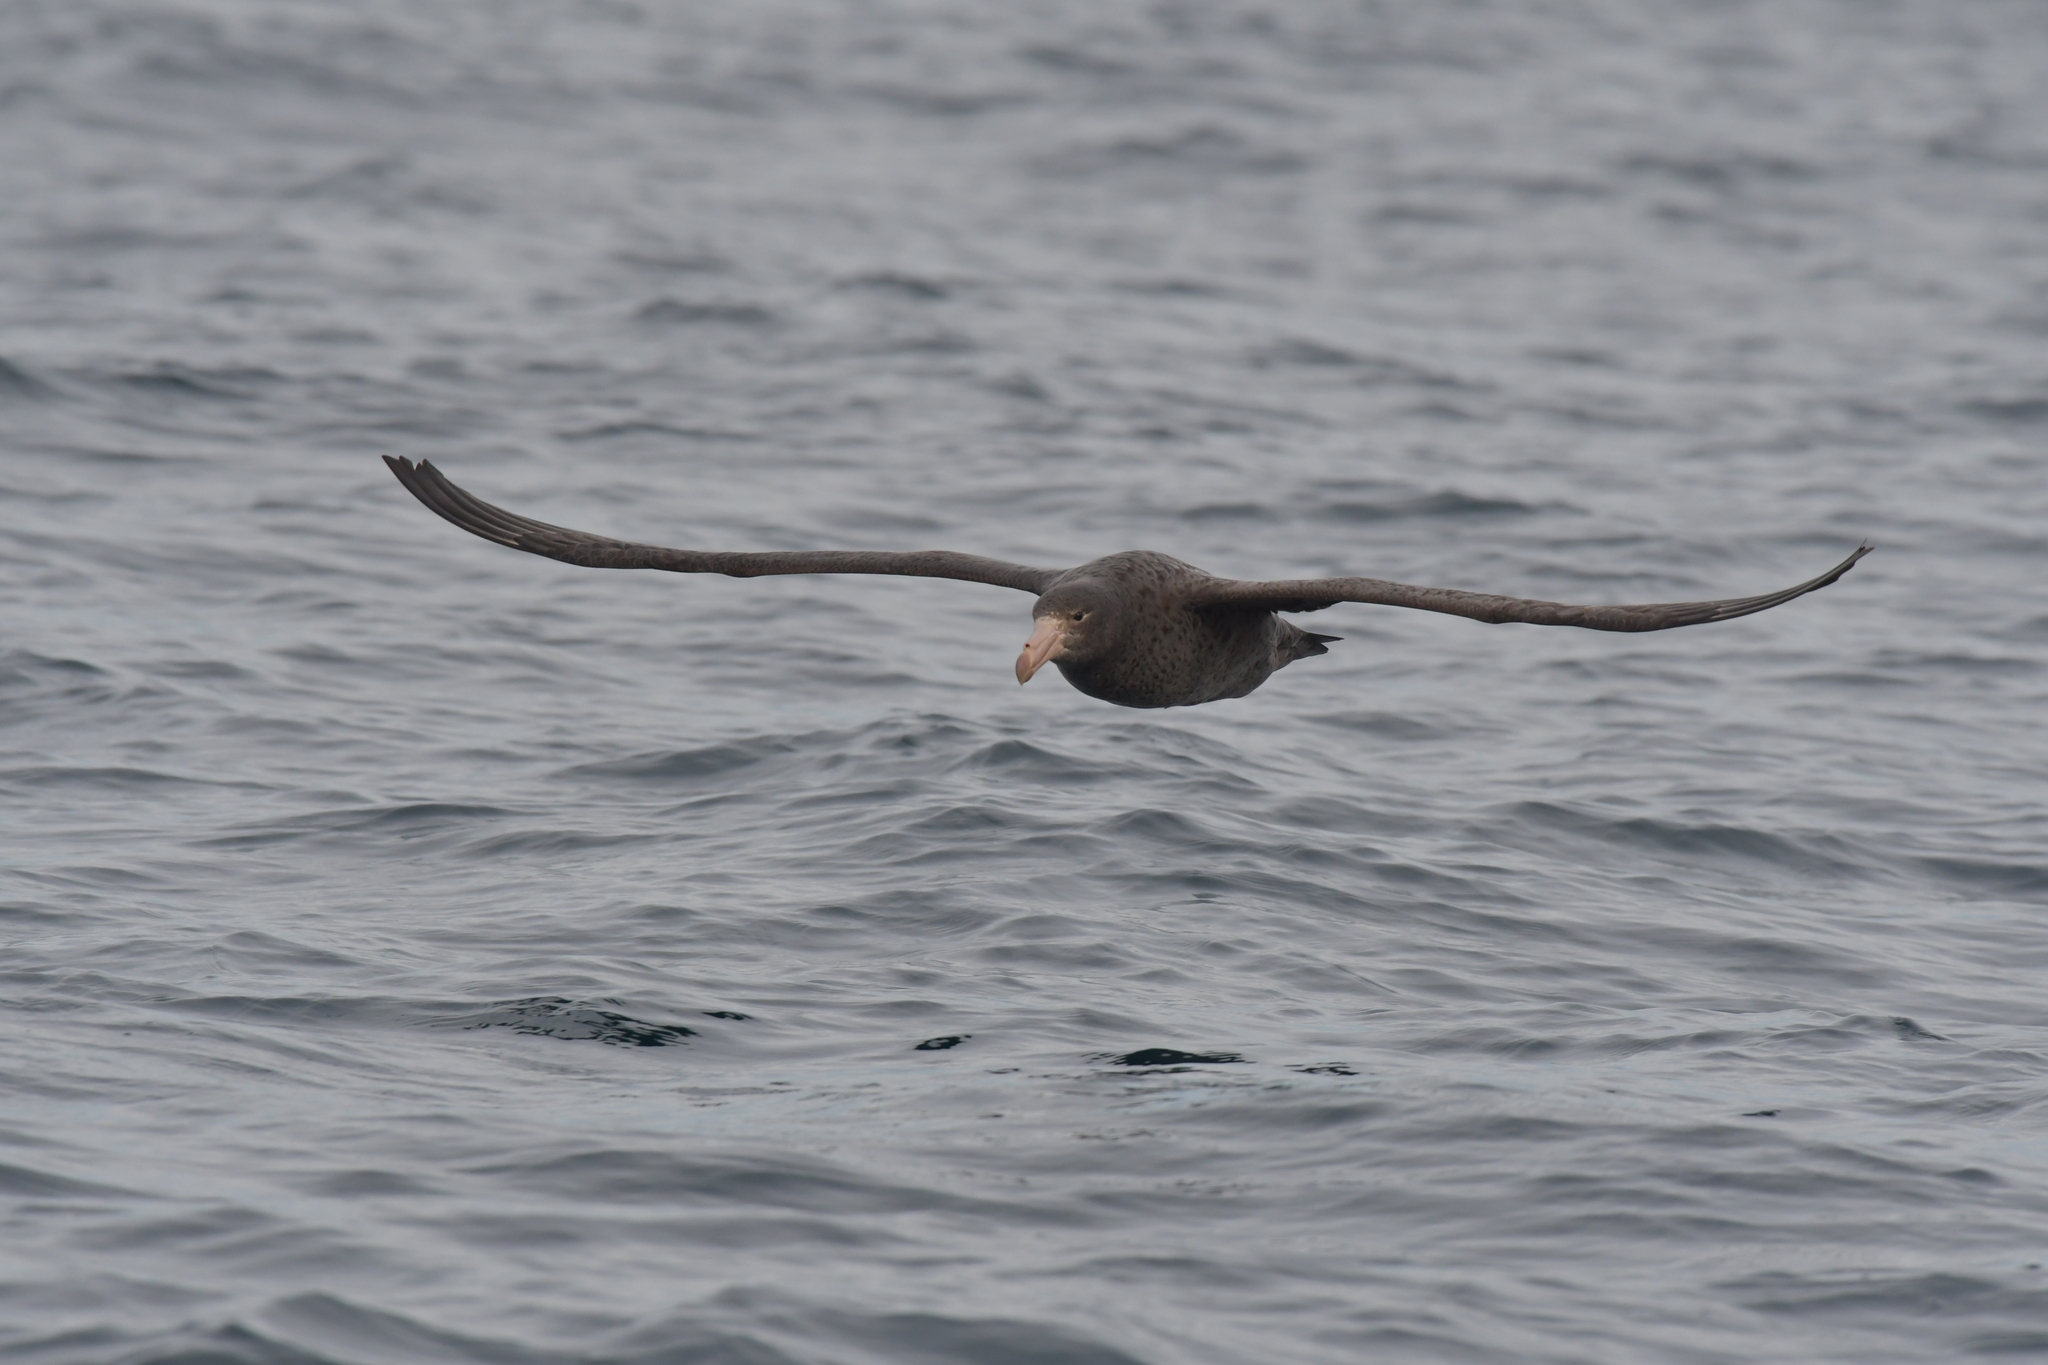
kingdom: Animalia
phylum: Chordata
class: Aves
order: Procellariiformes
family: Procellariidae
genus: Macronectes
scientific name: Macronectes halli
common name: Northern giant petrel
